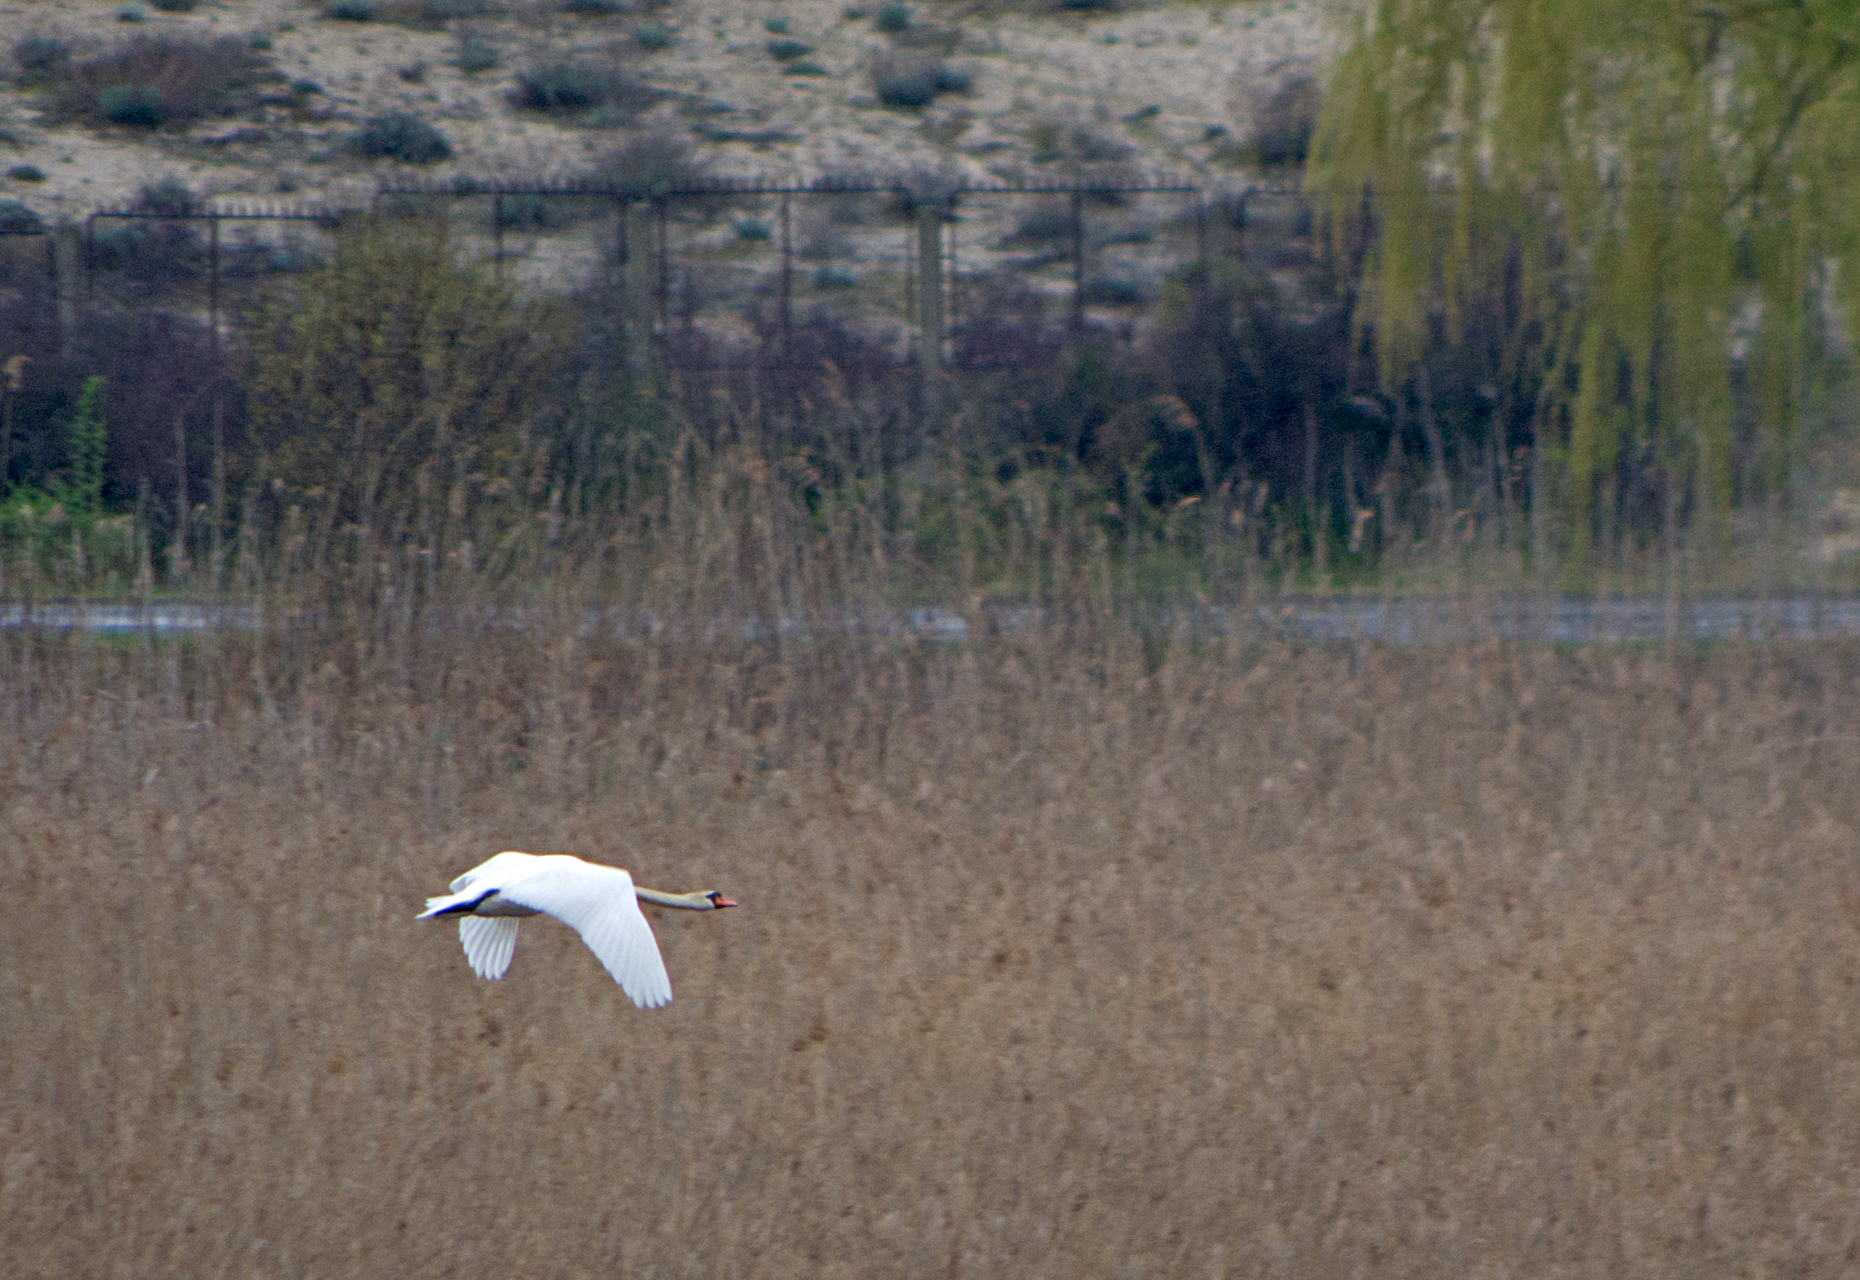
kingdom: Animalia
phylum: Chordata
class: Aves
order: Anseriformes
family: Anatidae
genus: Cygnus
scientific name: Cygnus olor
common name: Mute swan
